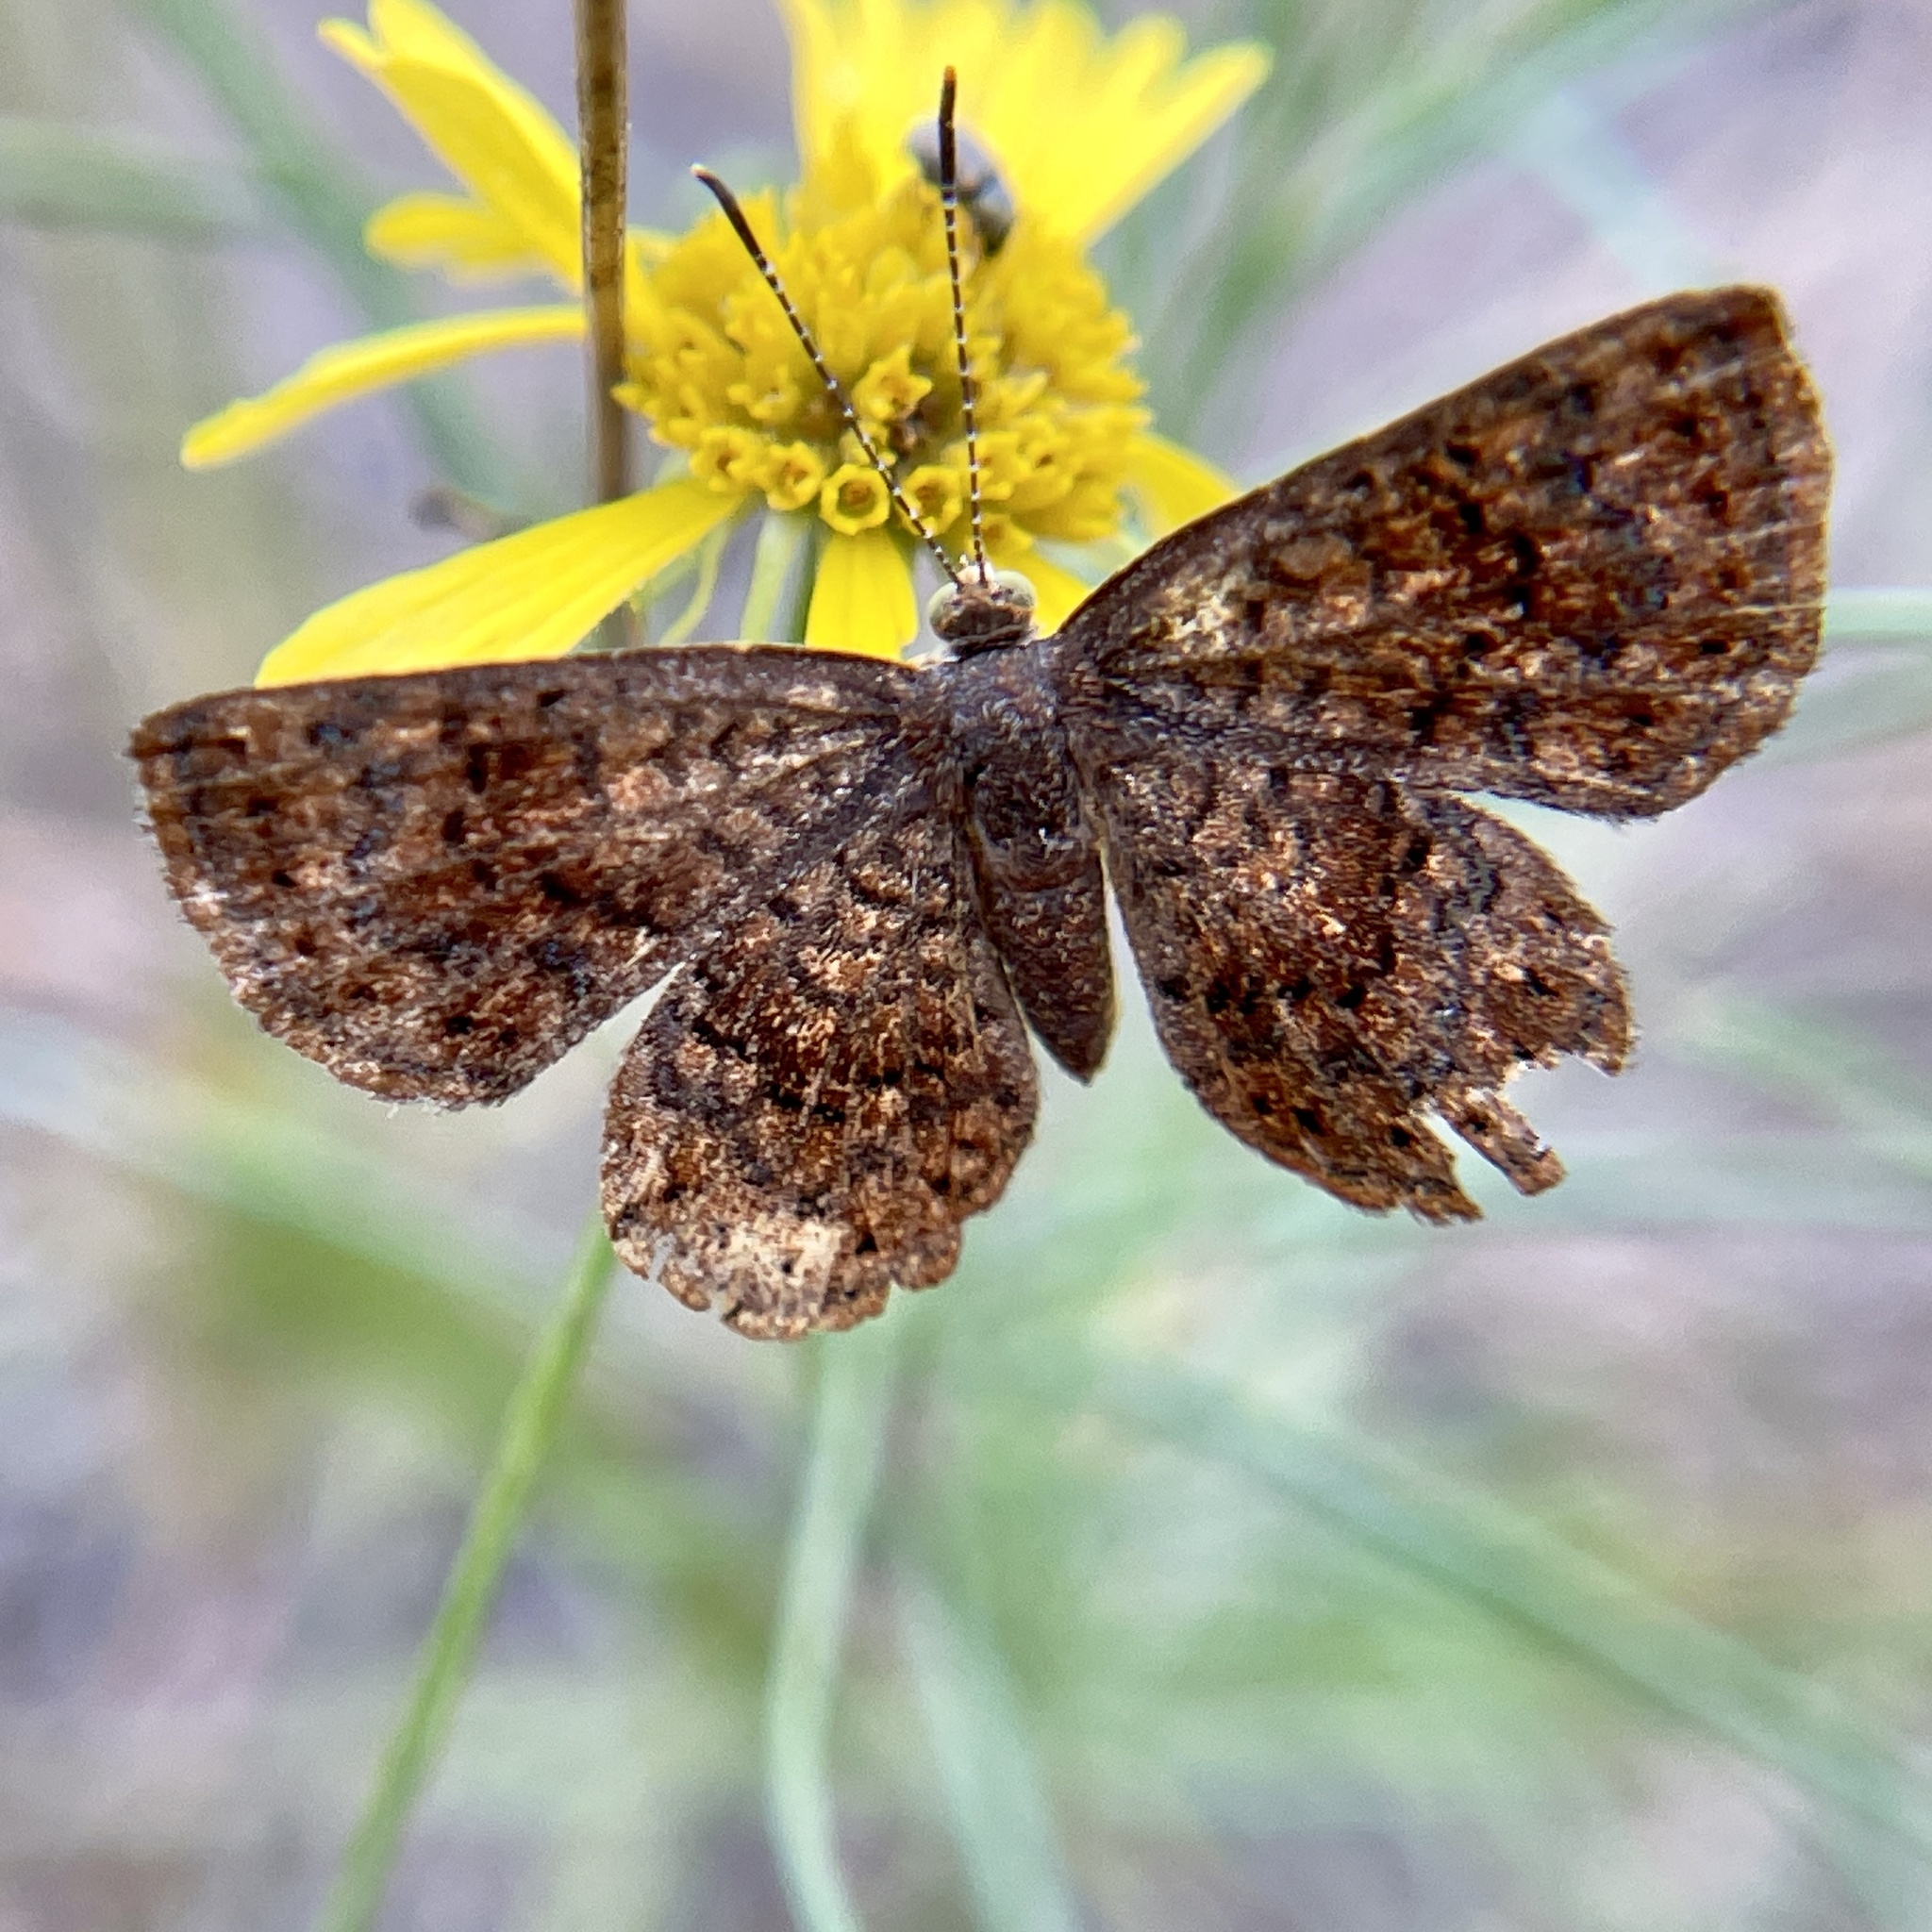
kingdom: Animalia
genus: Calephelis
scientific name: Calephelis perditalis
